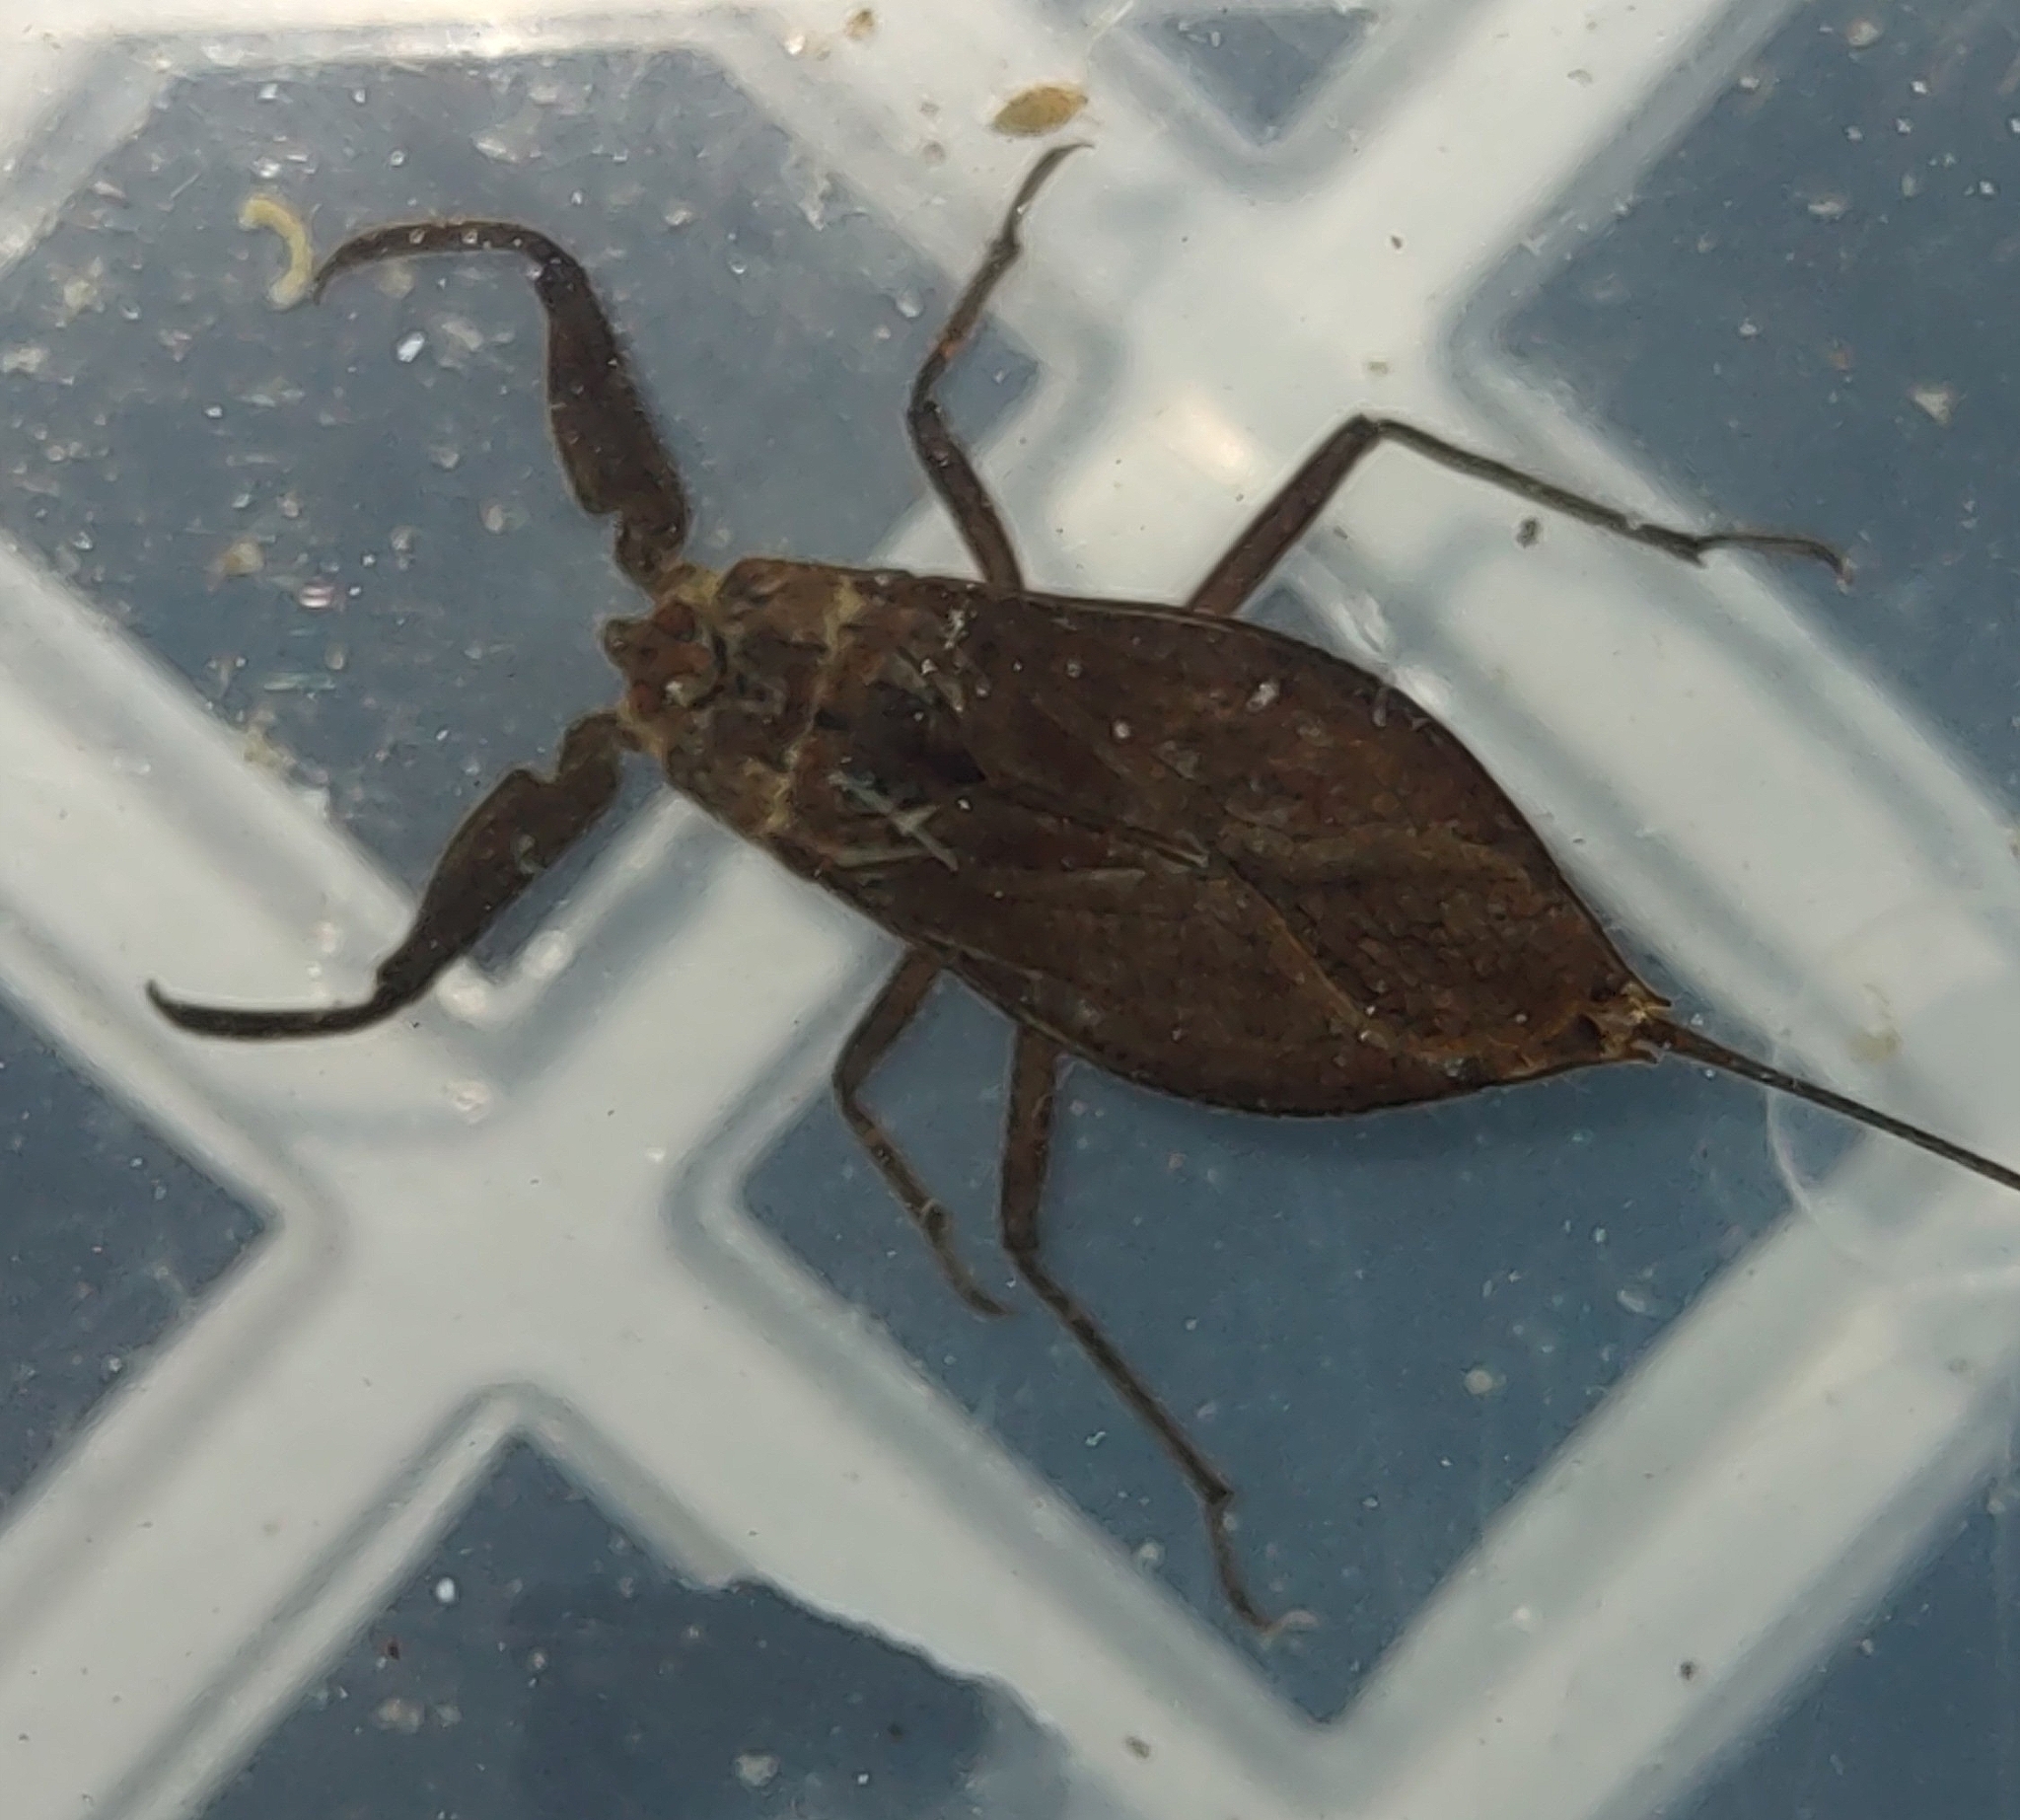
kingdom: Animalia
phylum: Arthropoda
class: Insecta
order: Hemiptera
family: Nepidae
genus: Nepa
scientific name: Nepa cinerea
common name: Water scorpion
